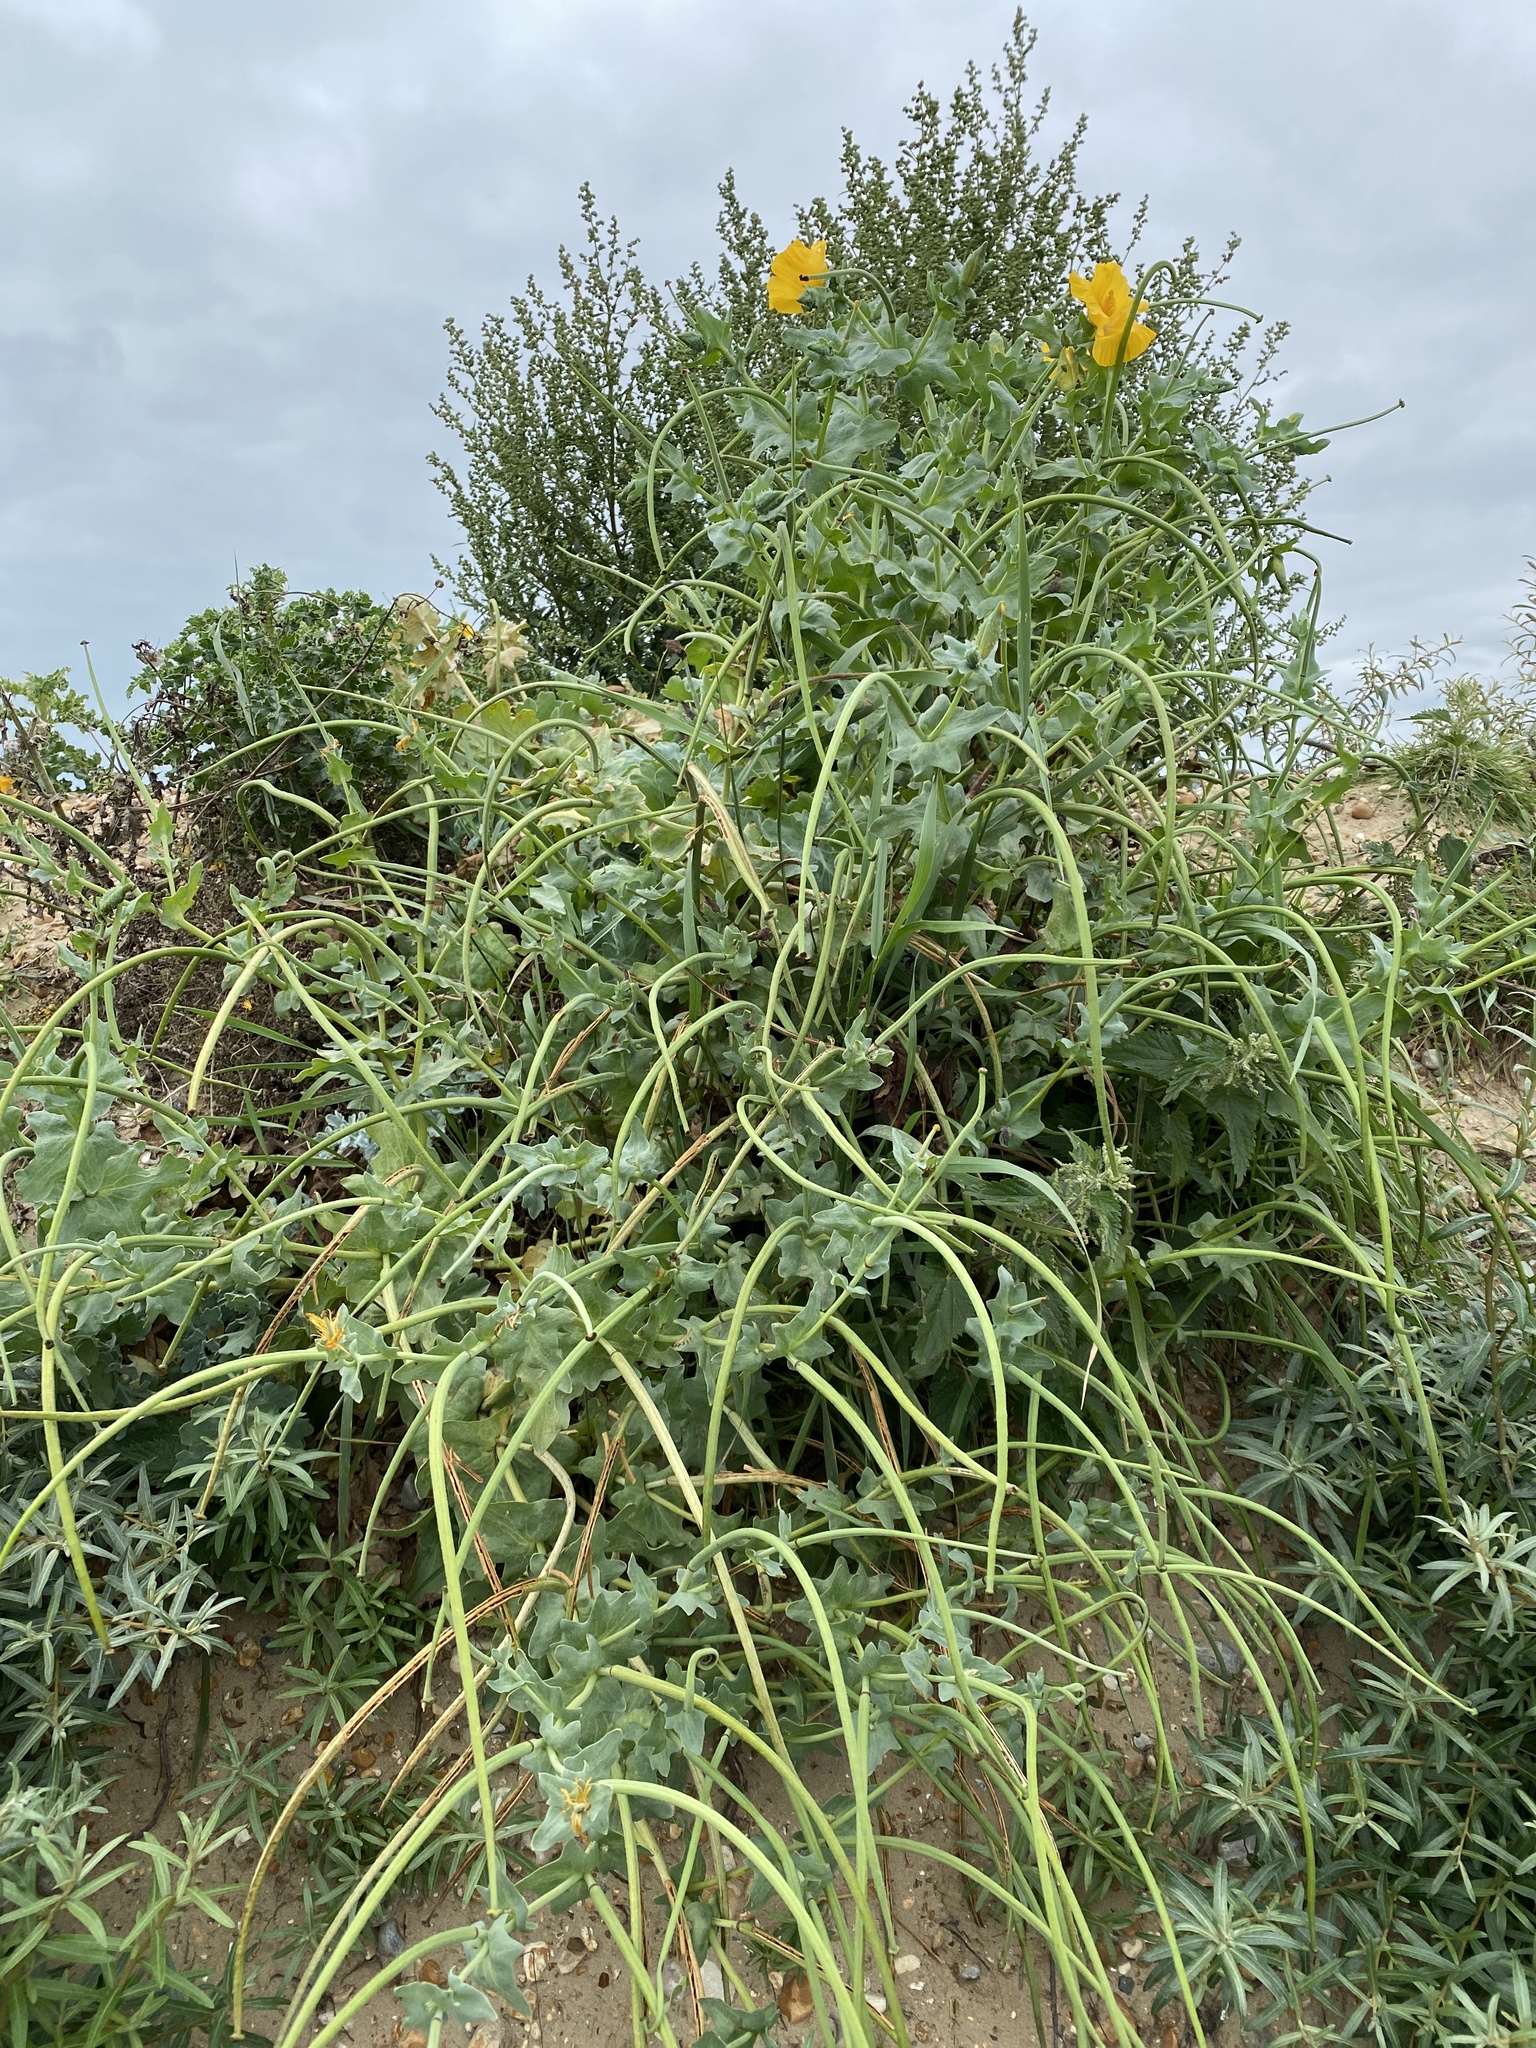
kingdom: Plantae
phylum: Tracheophyta
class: Magnoliopsida
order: Ranunculales
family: Papaveraceae
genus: Glaucium
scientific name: Glaucium flavum
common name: Yellow horned-poppy
